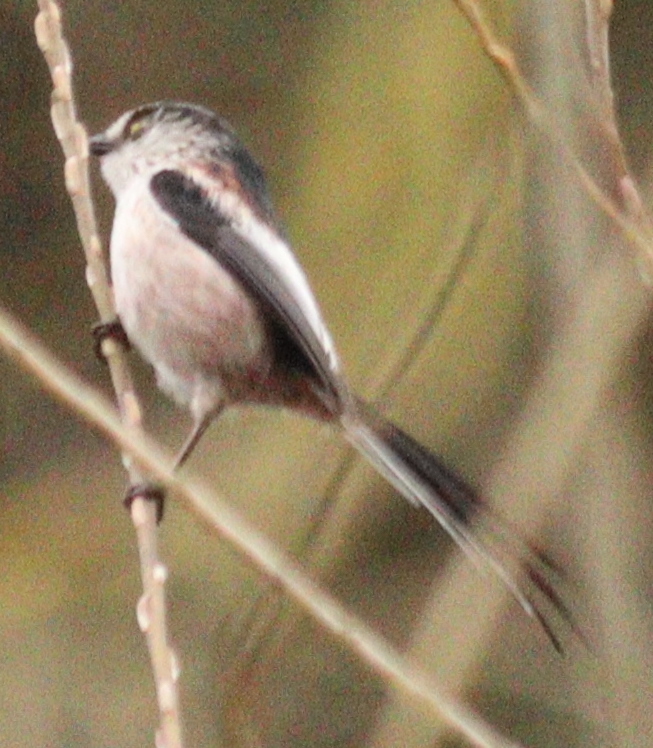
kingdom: Animalia
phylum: Chordata
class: Aves
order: Passeriformes
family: Aegithalidae
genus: Aegithalos
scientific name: Aegithalos caudatus
